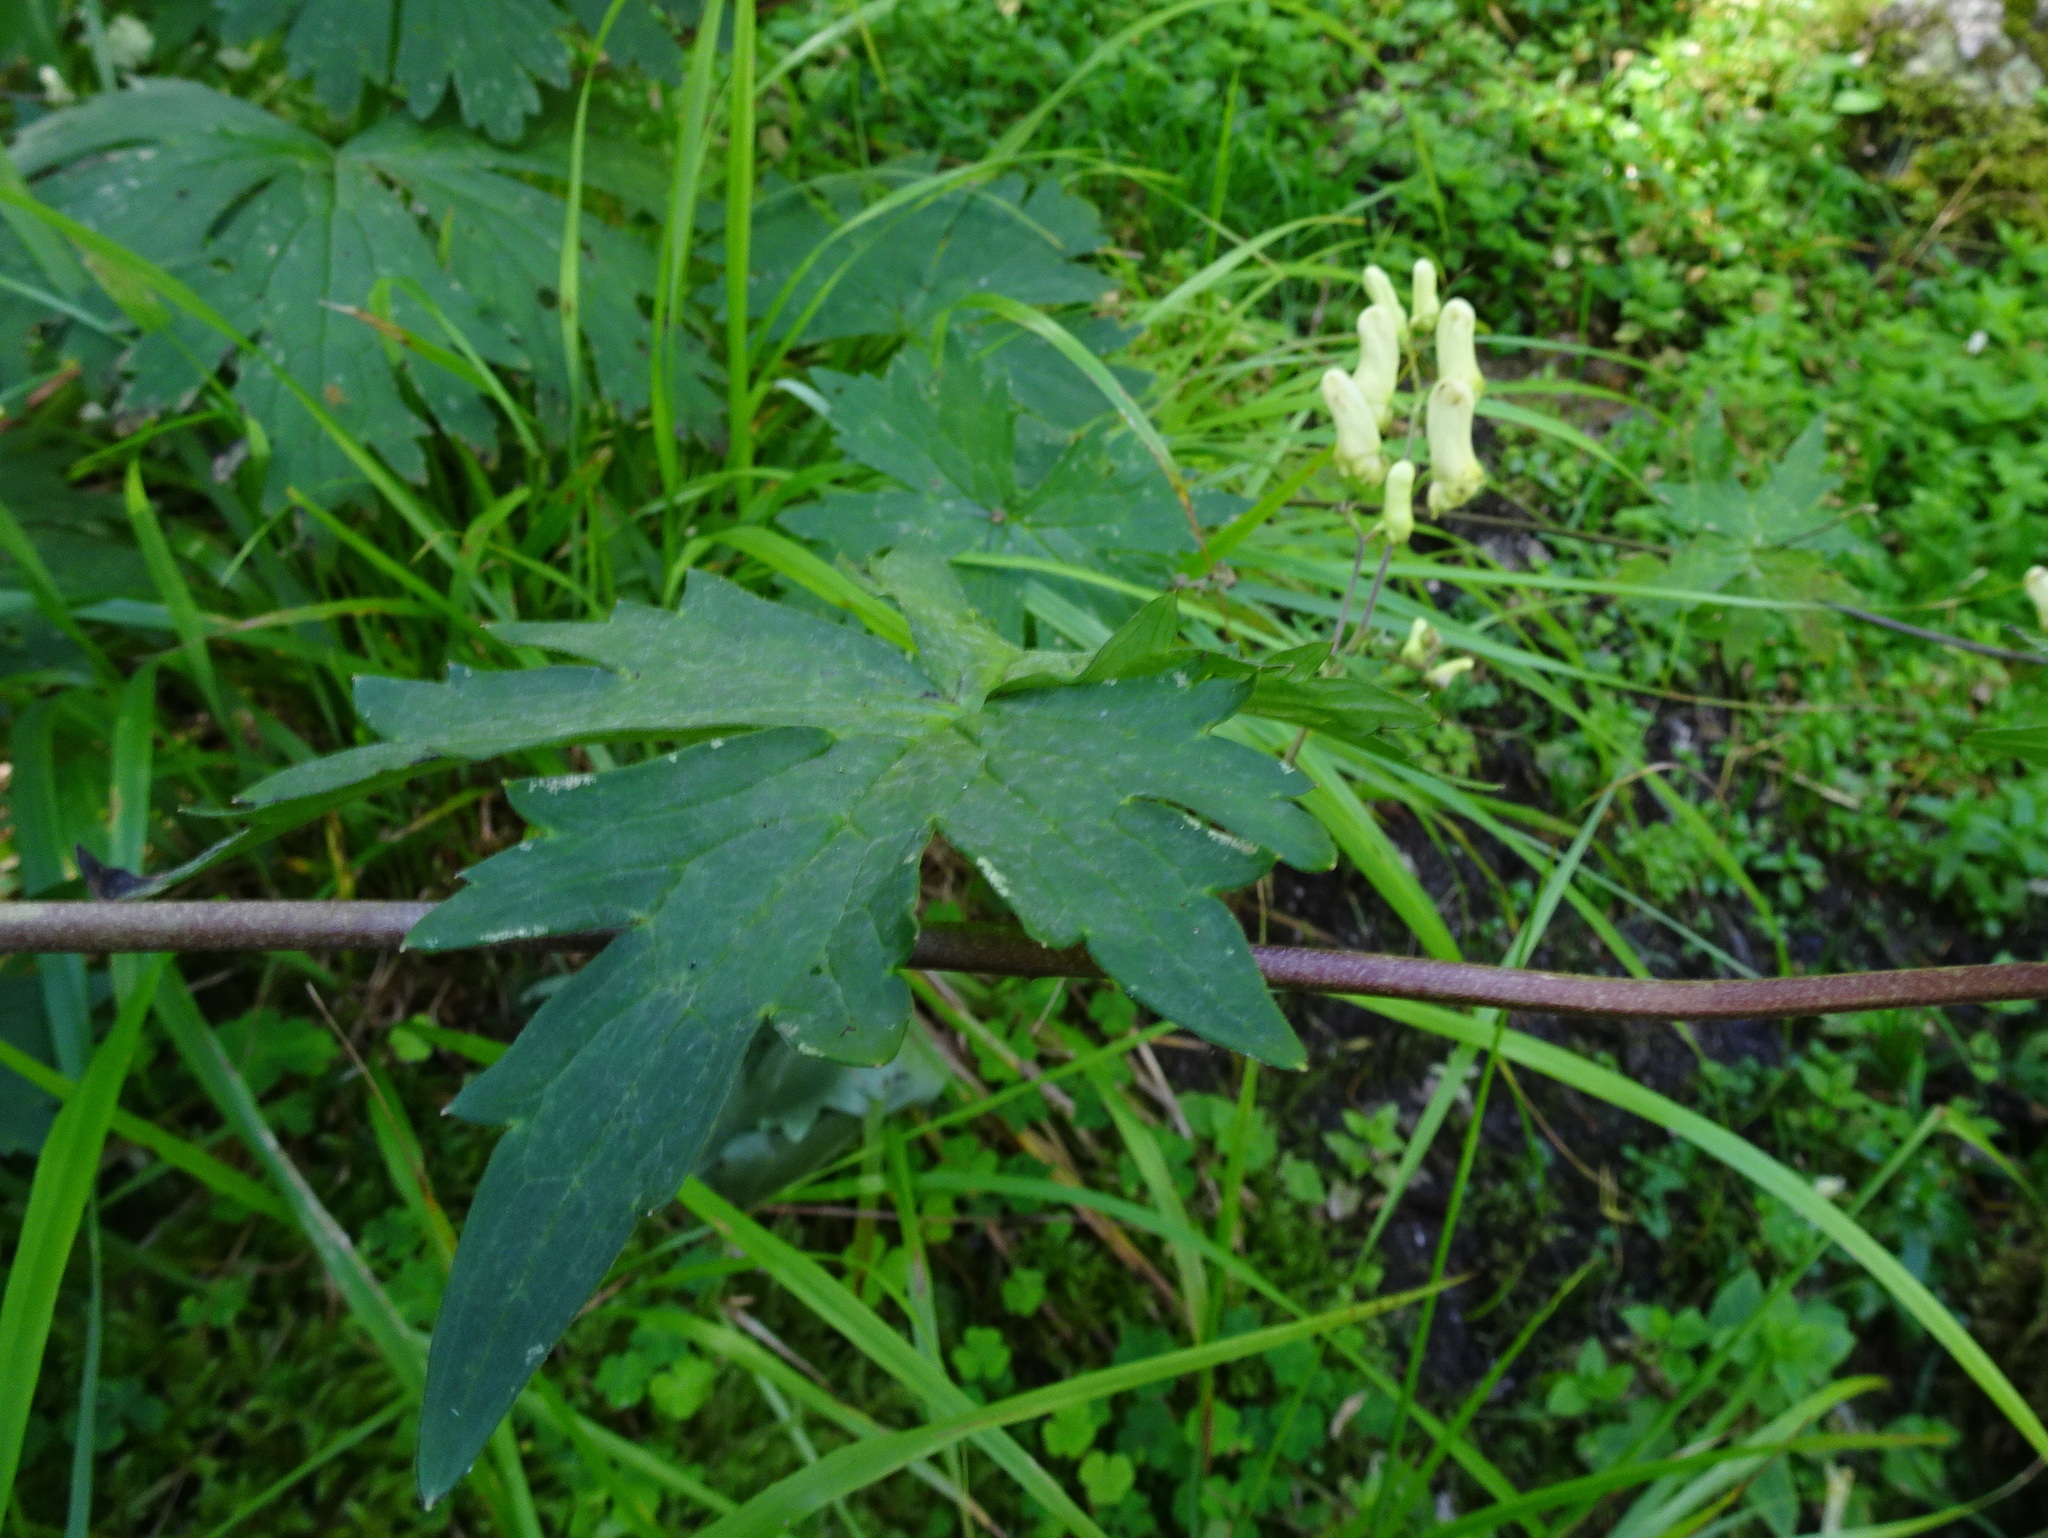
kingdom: Plantae
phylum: Tracheophyta
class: Magnoliopsida
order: Ranunculales
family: Ranunculaceae
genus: Aconitum
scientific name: Aconitum lycoctonum
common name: Wolf's-bane
